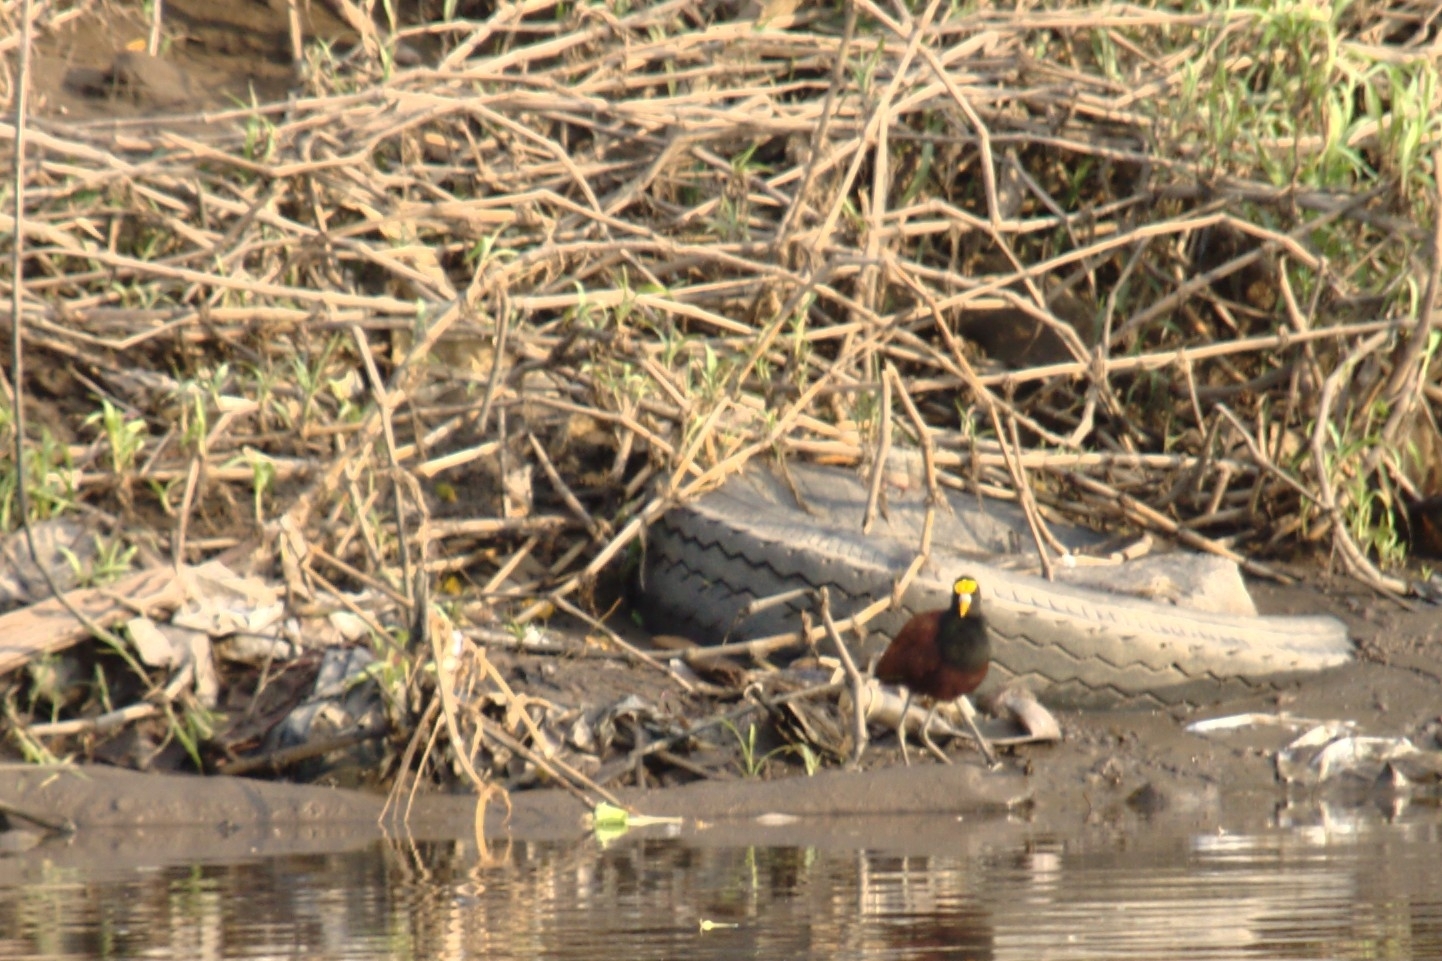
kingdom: Animalia
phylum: Chordata
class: Aves
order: Charadriiformes
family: Jacanidae
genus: Jacana
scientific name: Jacana spinosa
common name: Northern jacana
